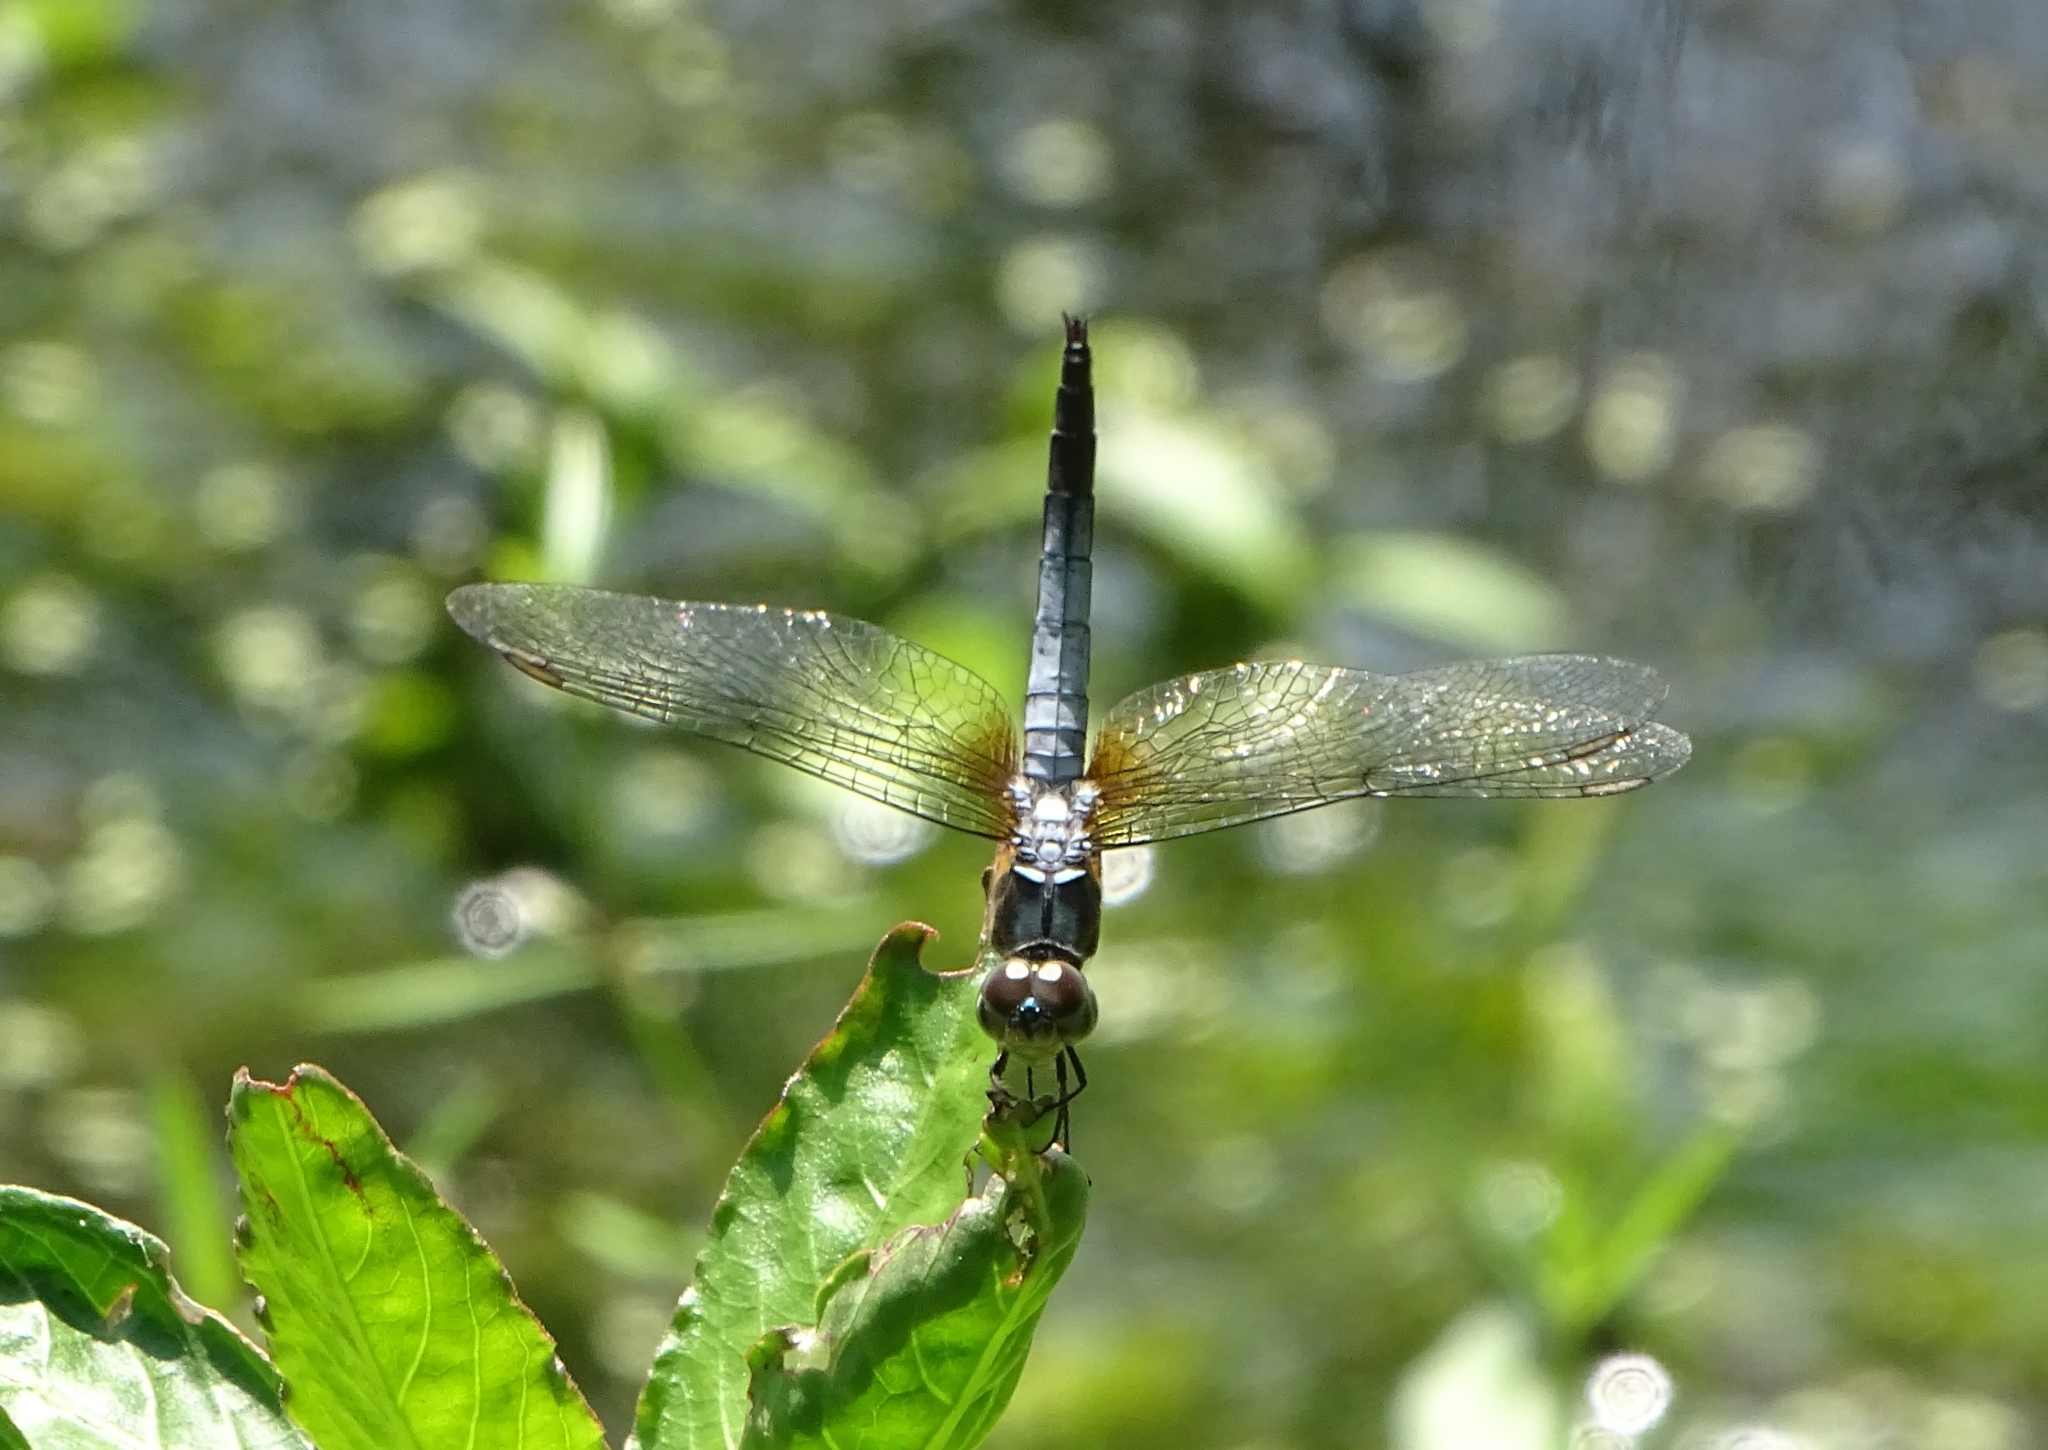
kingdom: Animalia
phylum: Arthropoda
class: Insecta
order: Odonata
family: Libellulidae
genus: Brachydiplax
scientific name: Brachydiplax chalybea
